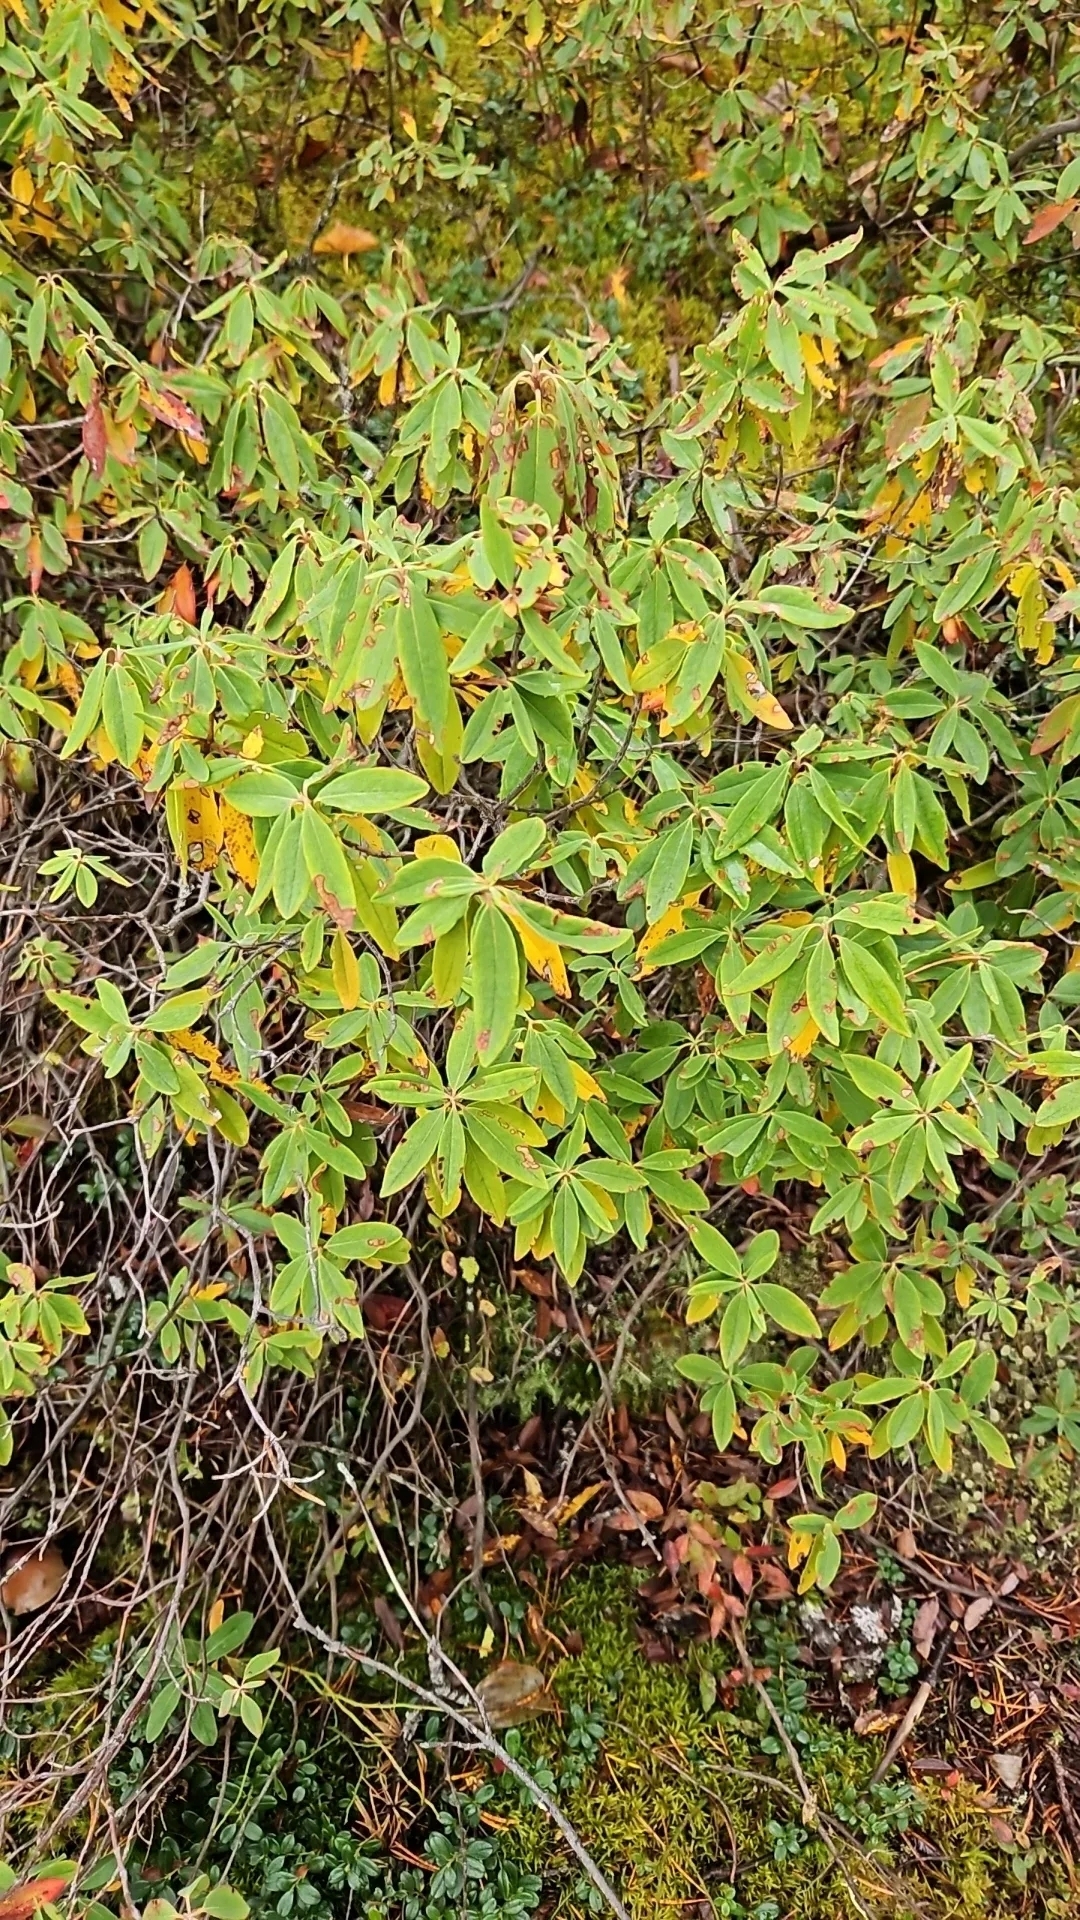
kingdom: Plantae
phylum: Tracheophyta
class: Magnoliopsida
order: Ericales
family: Ericaceae
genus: Kalmia
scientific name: Kalmia angustifolia
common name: Sheep-laurel
